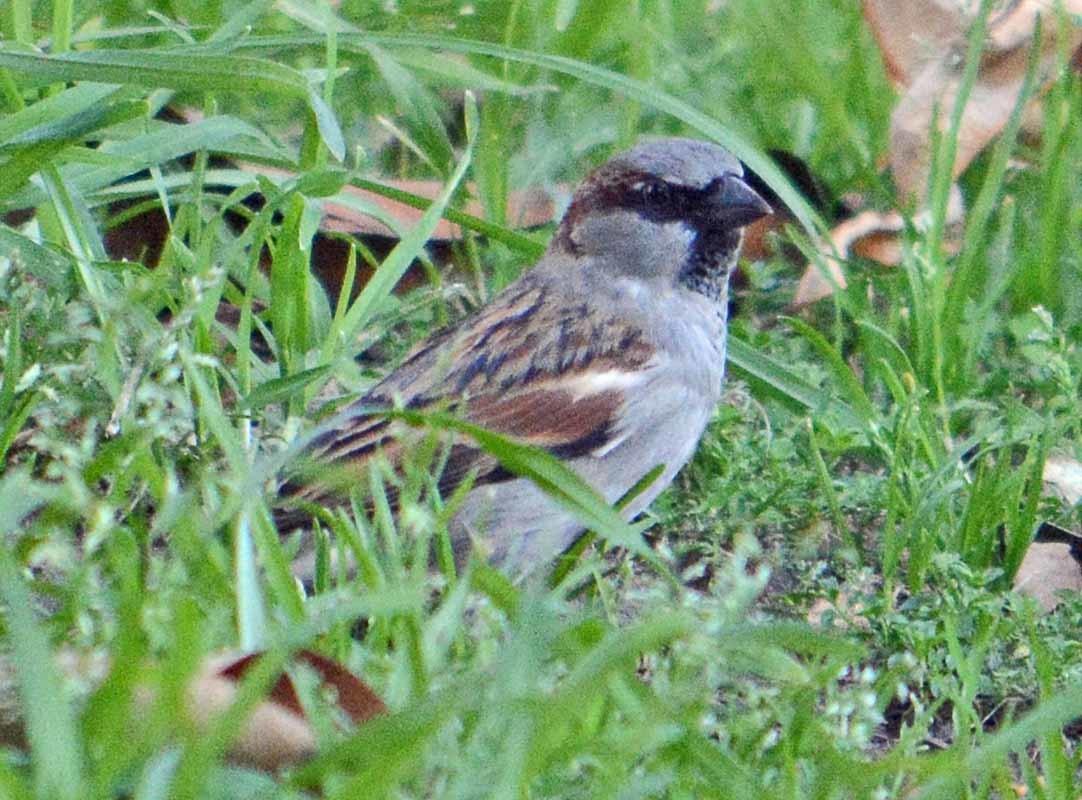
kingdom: Animalia
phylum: Chordata
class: Aves
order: Passeriformes
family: Passeridae
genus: Passer
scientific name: Passer domesticus
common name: House sparrow
